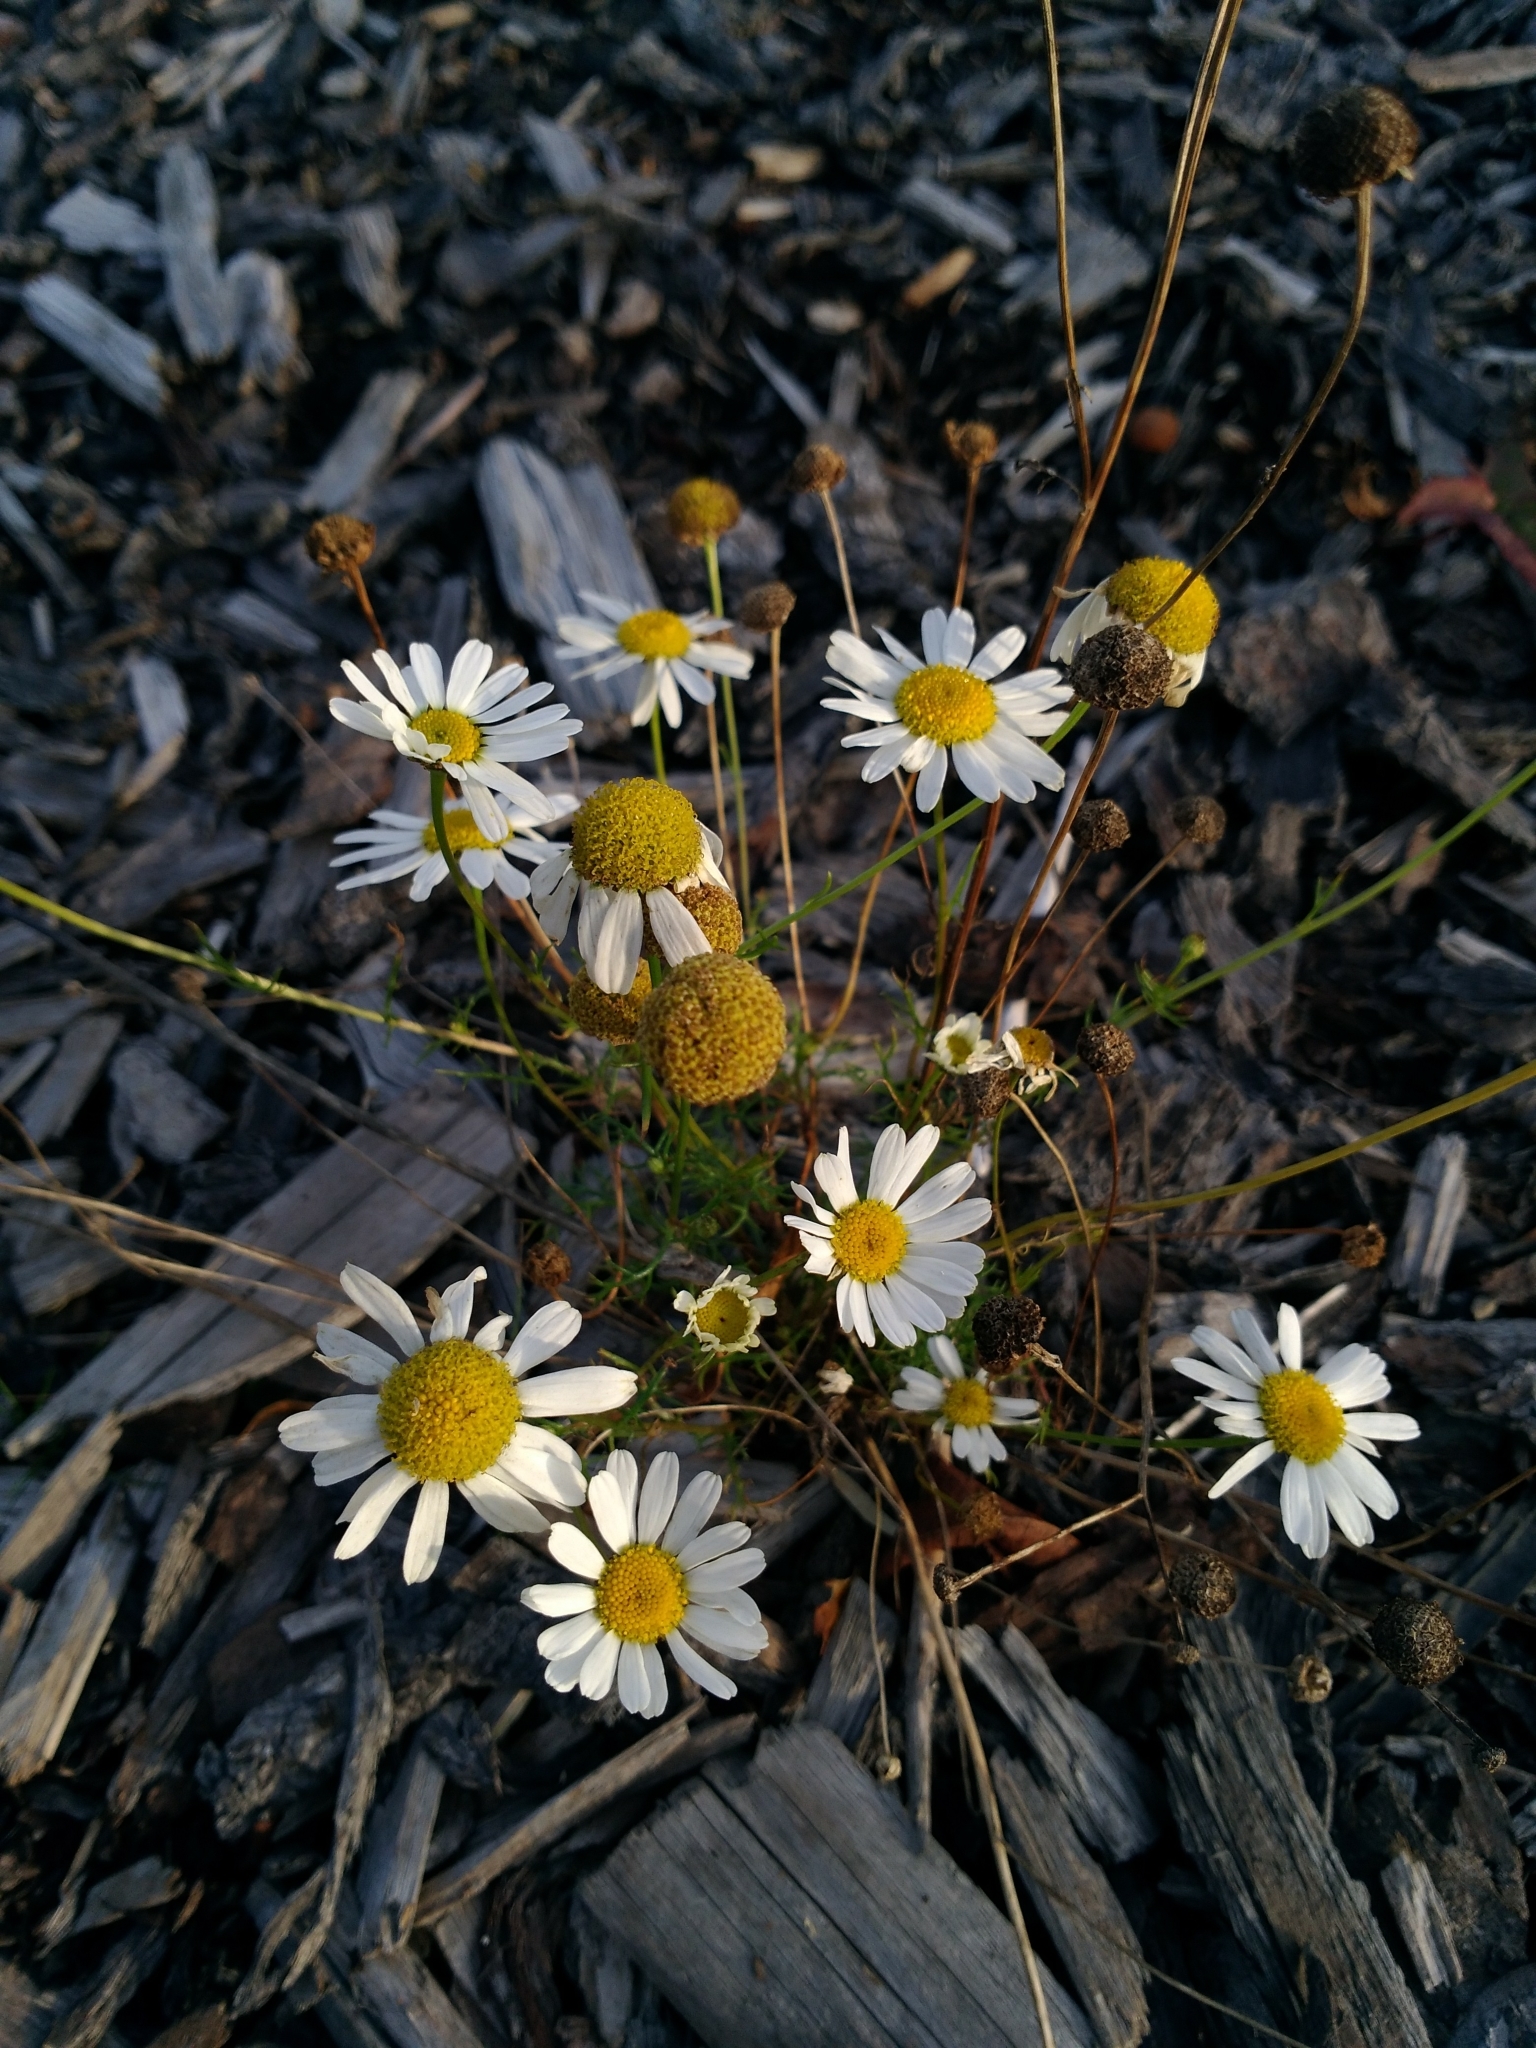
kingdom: Plantae
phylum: Tracheophyta
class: Magnoliopsida
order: Asterales
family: Asteraceae
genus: Anthemis
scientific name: Anthemis cotula
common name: Stinking chamomile
